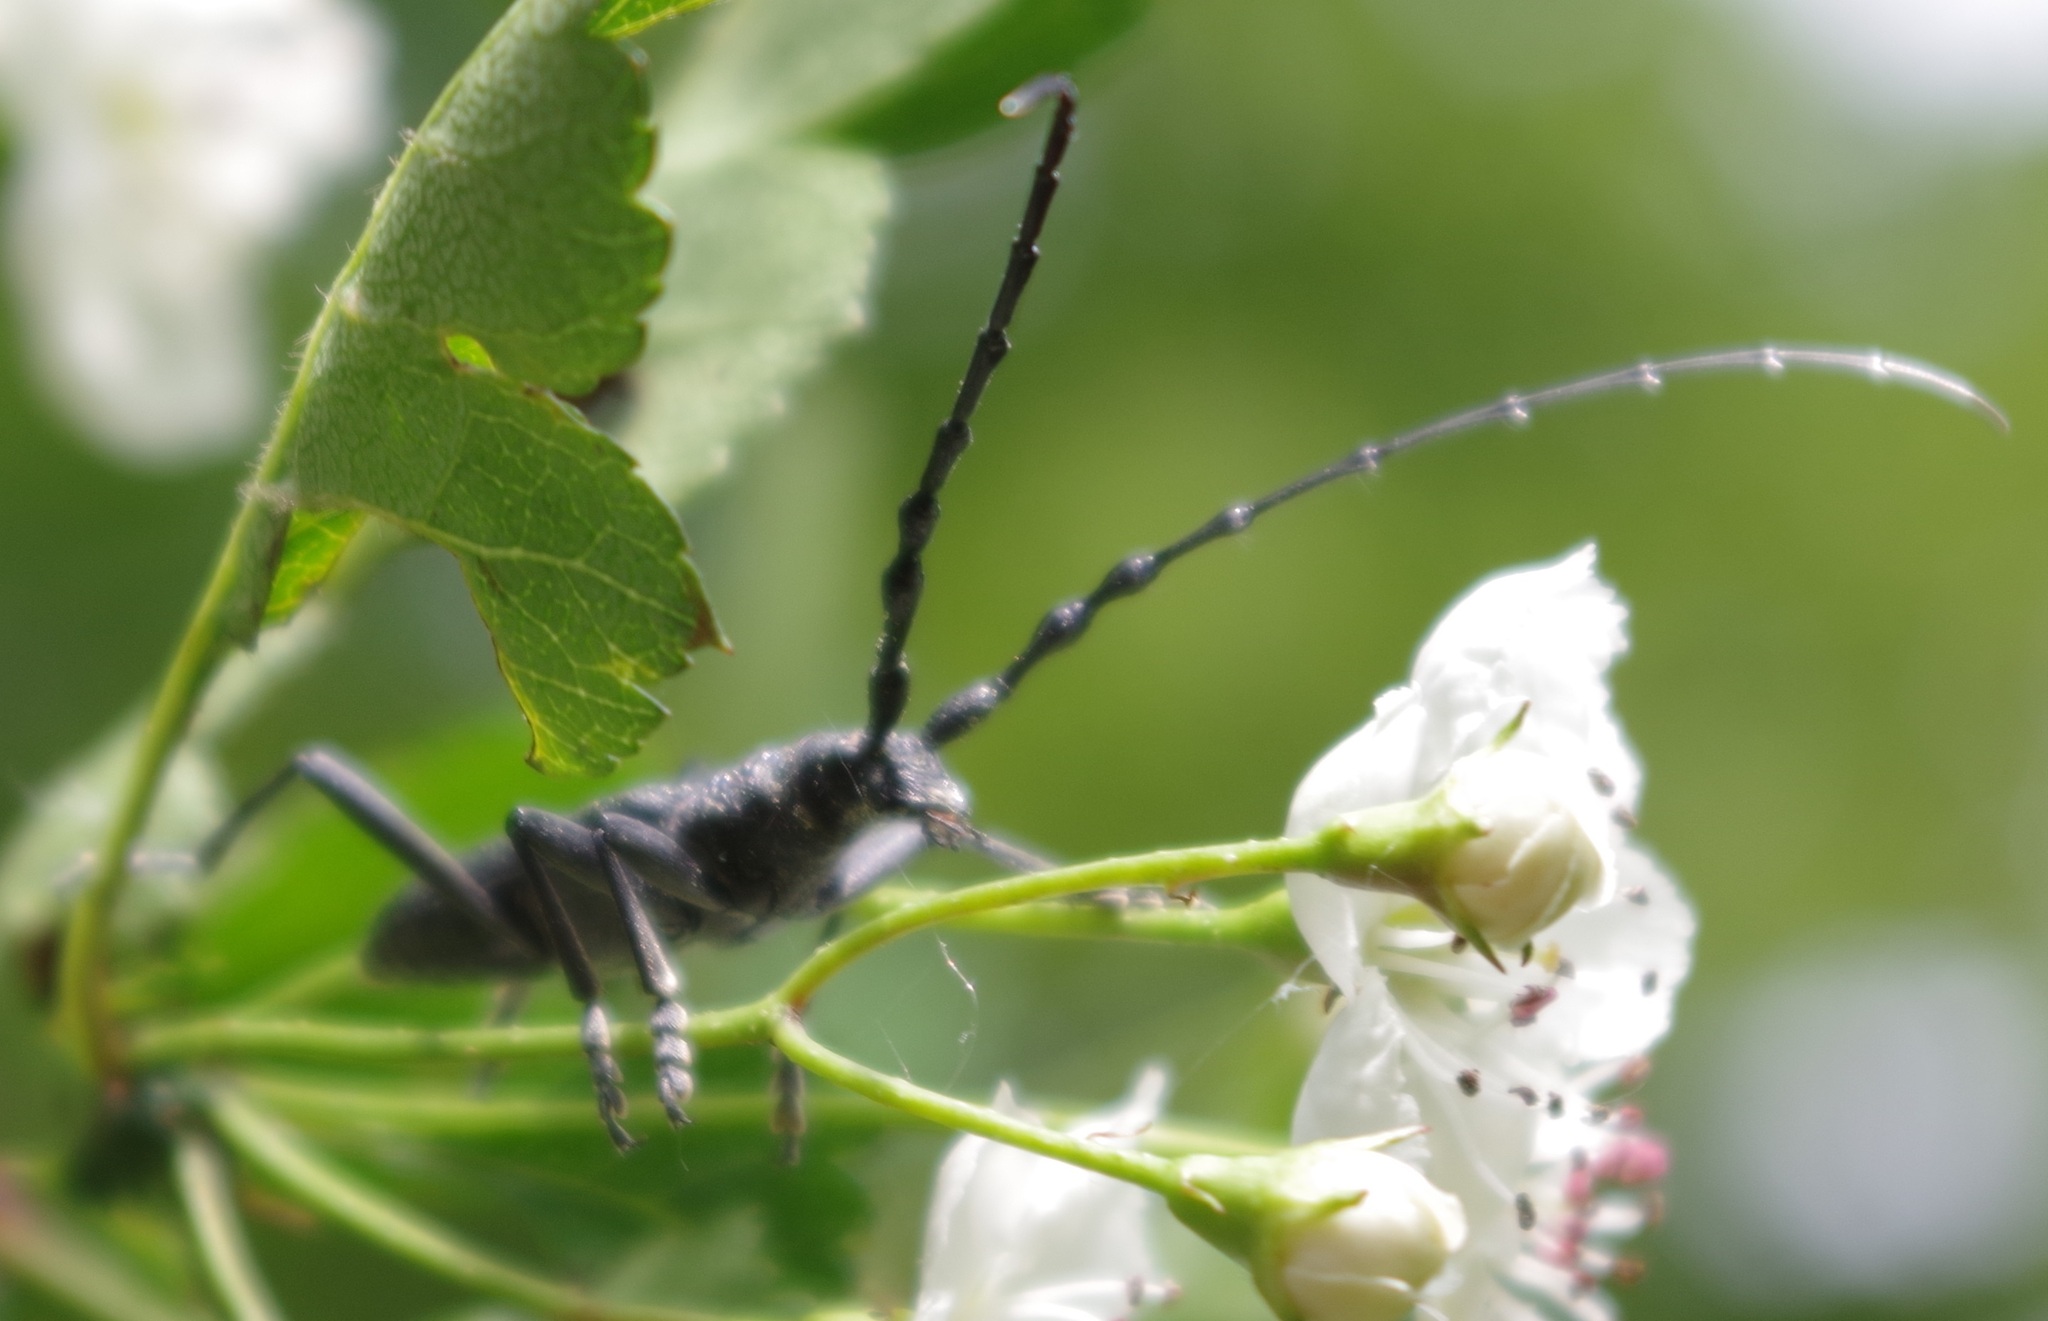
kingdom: Animalia
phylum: Arthropoda
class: Insecta
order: Coleoptera
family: Cerambycidae
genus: Cerambyx
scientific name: Cerambyx scopolii
